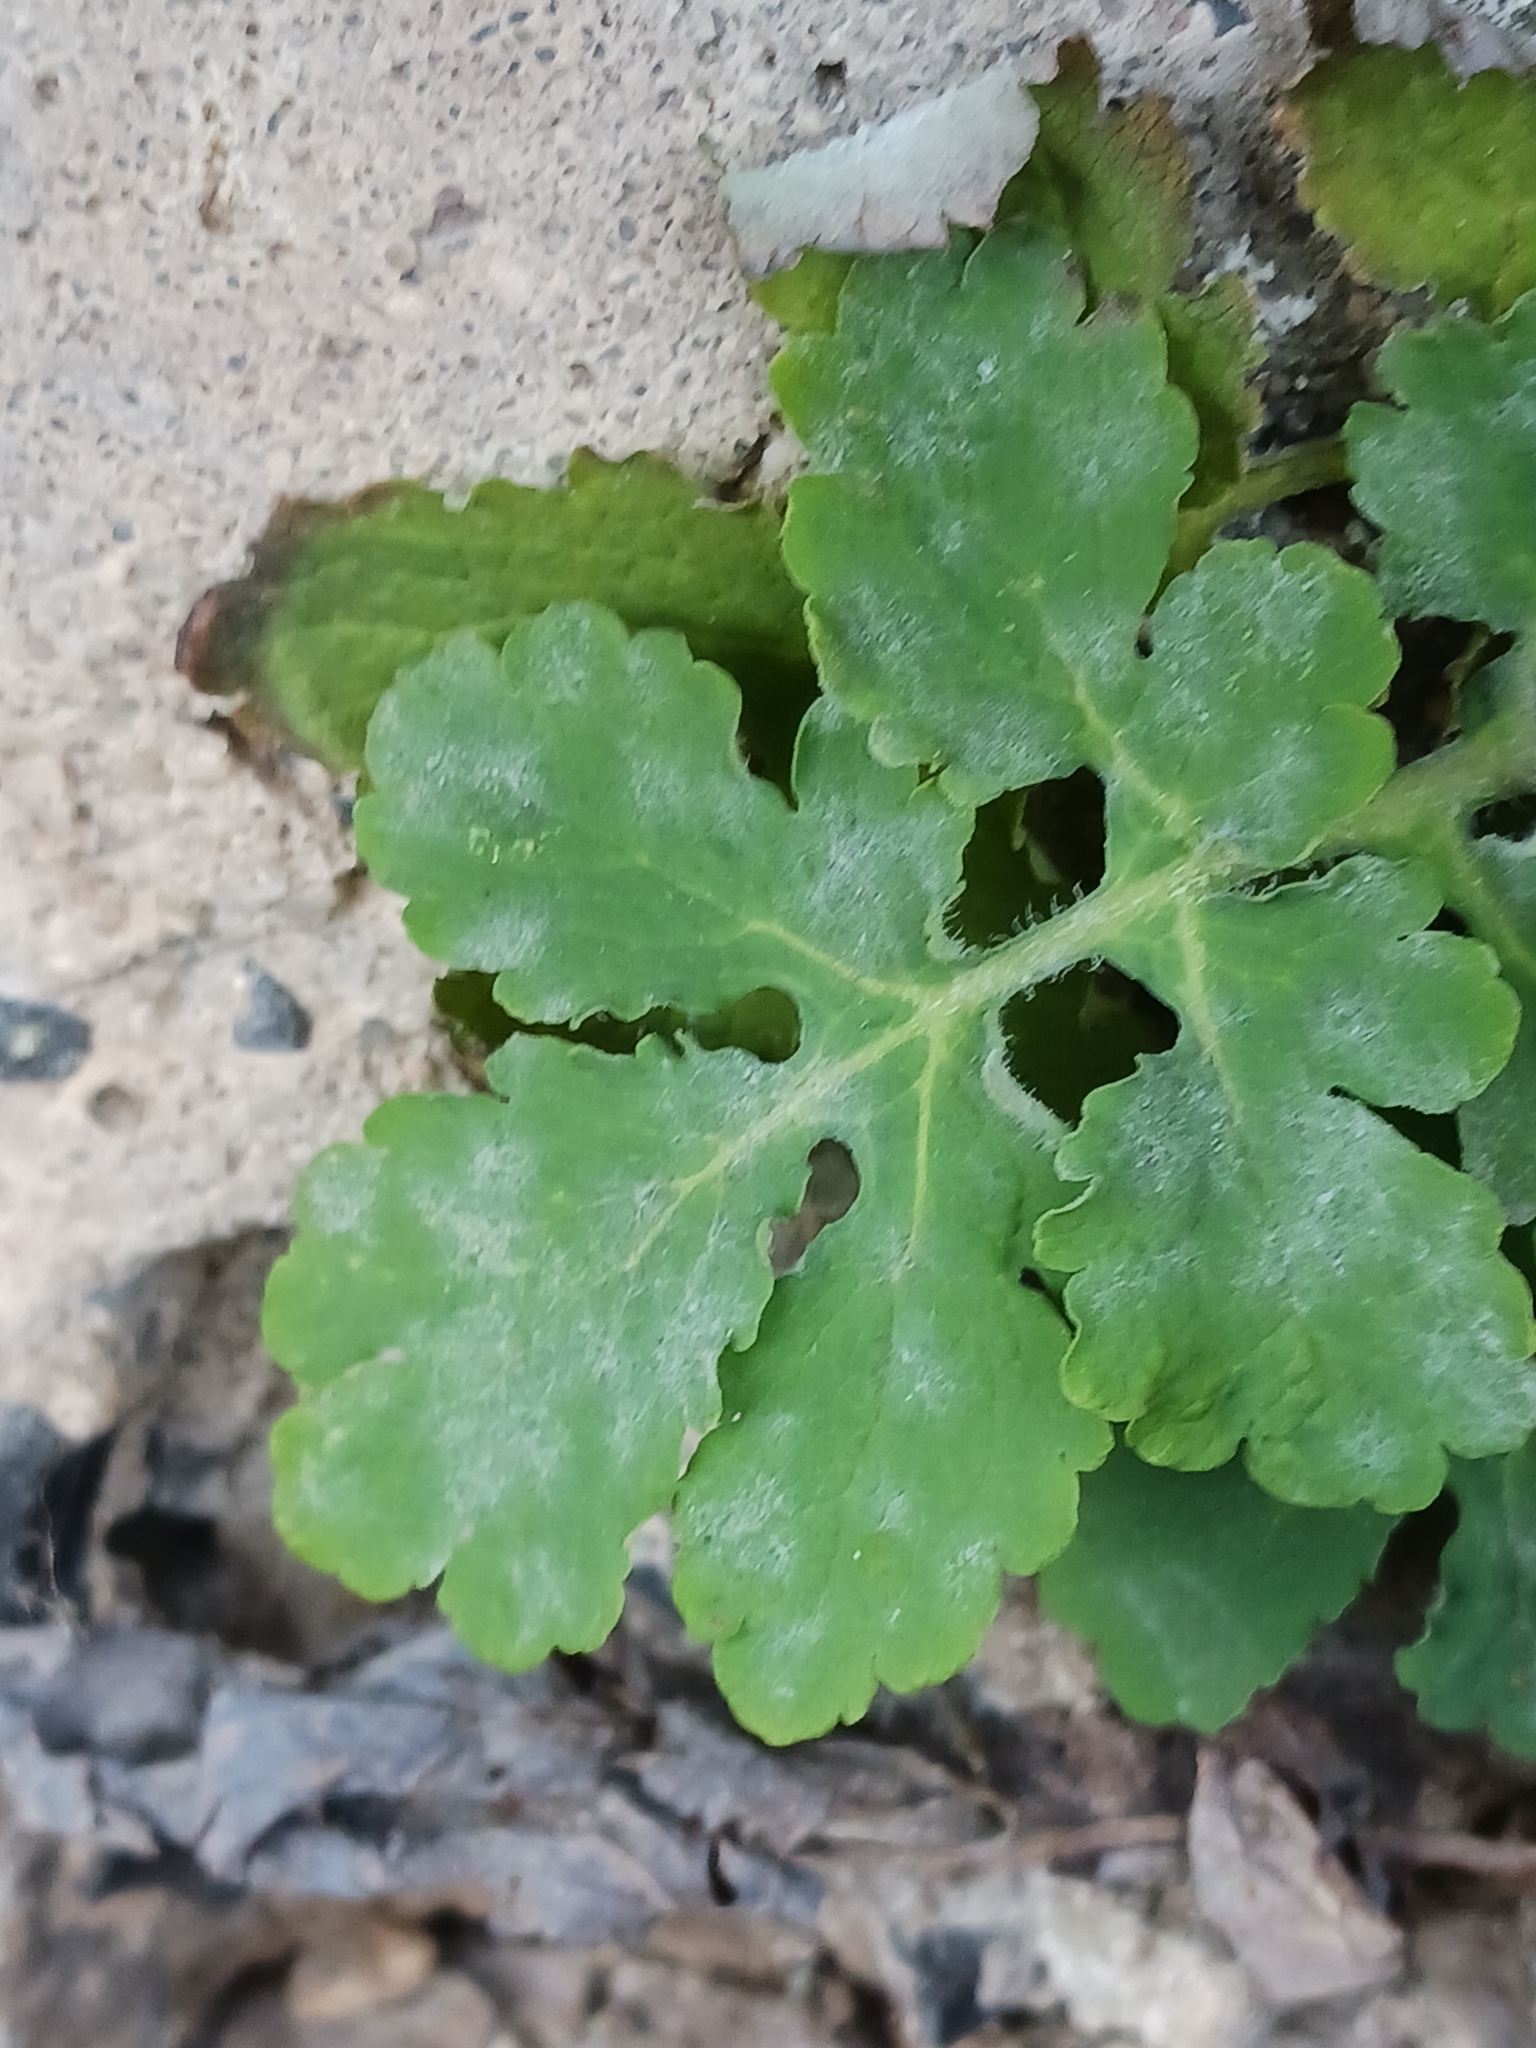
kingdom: Fungi
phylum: Ascomycota
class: Leotiomycetes
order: Helotiales
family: Erysiphaceae
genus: Erysiphe
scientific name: Erysiphe macleayae
